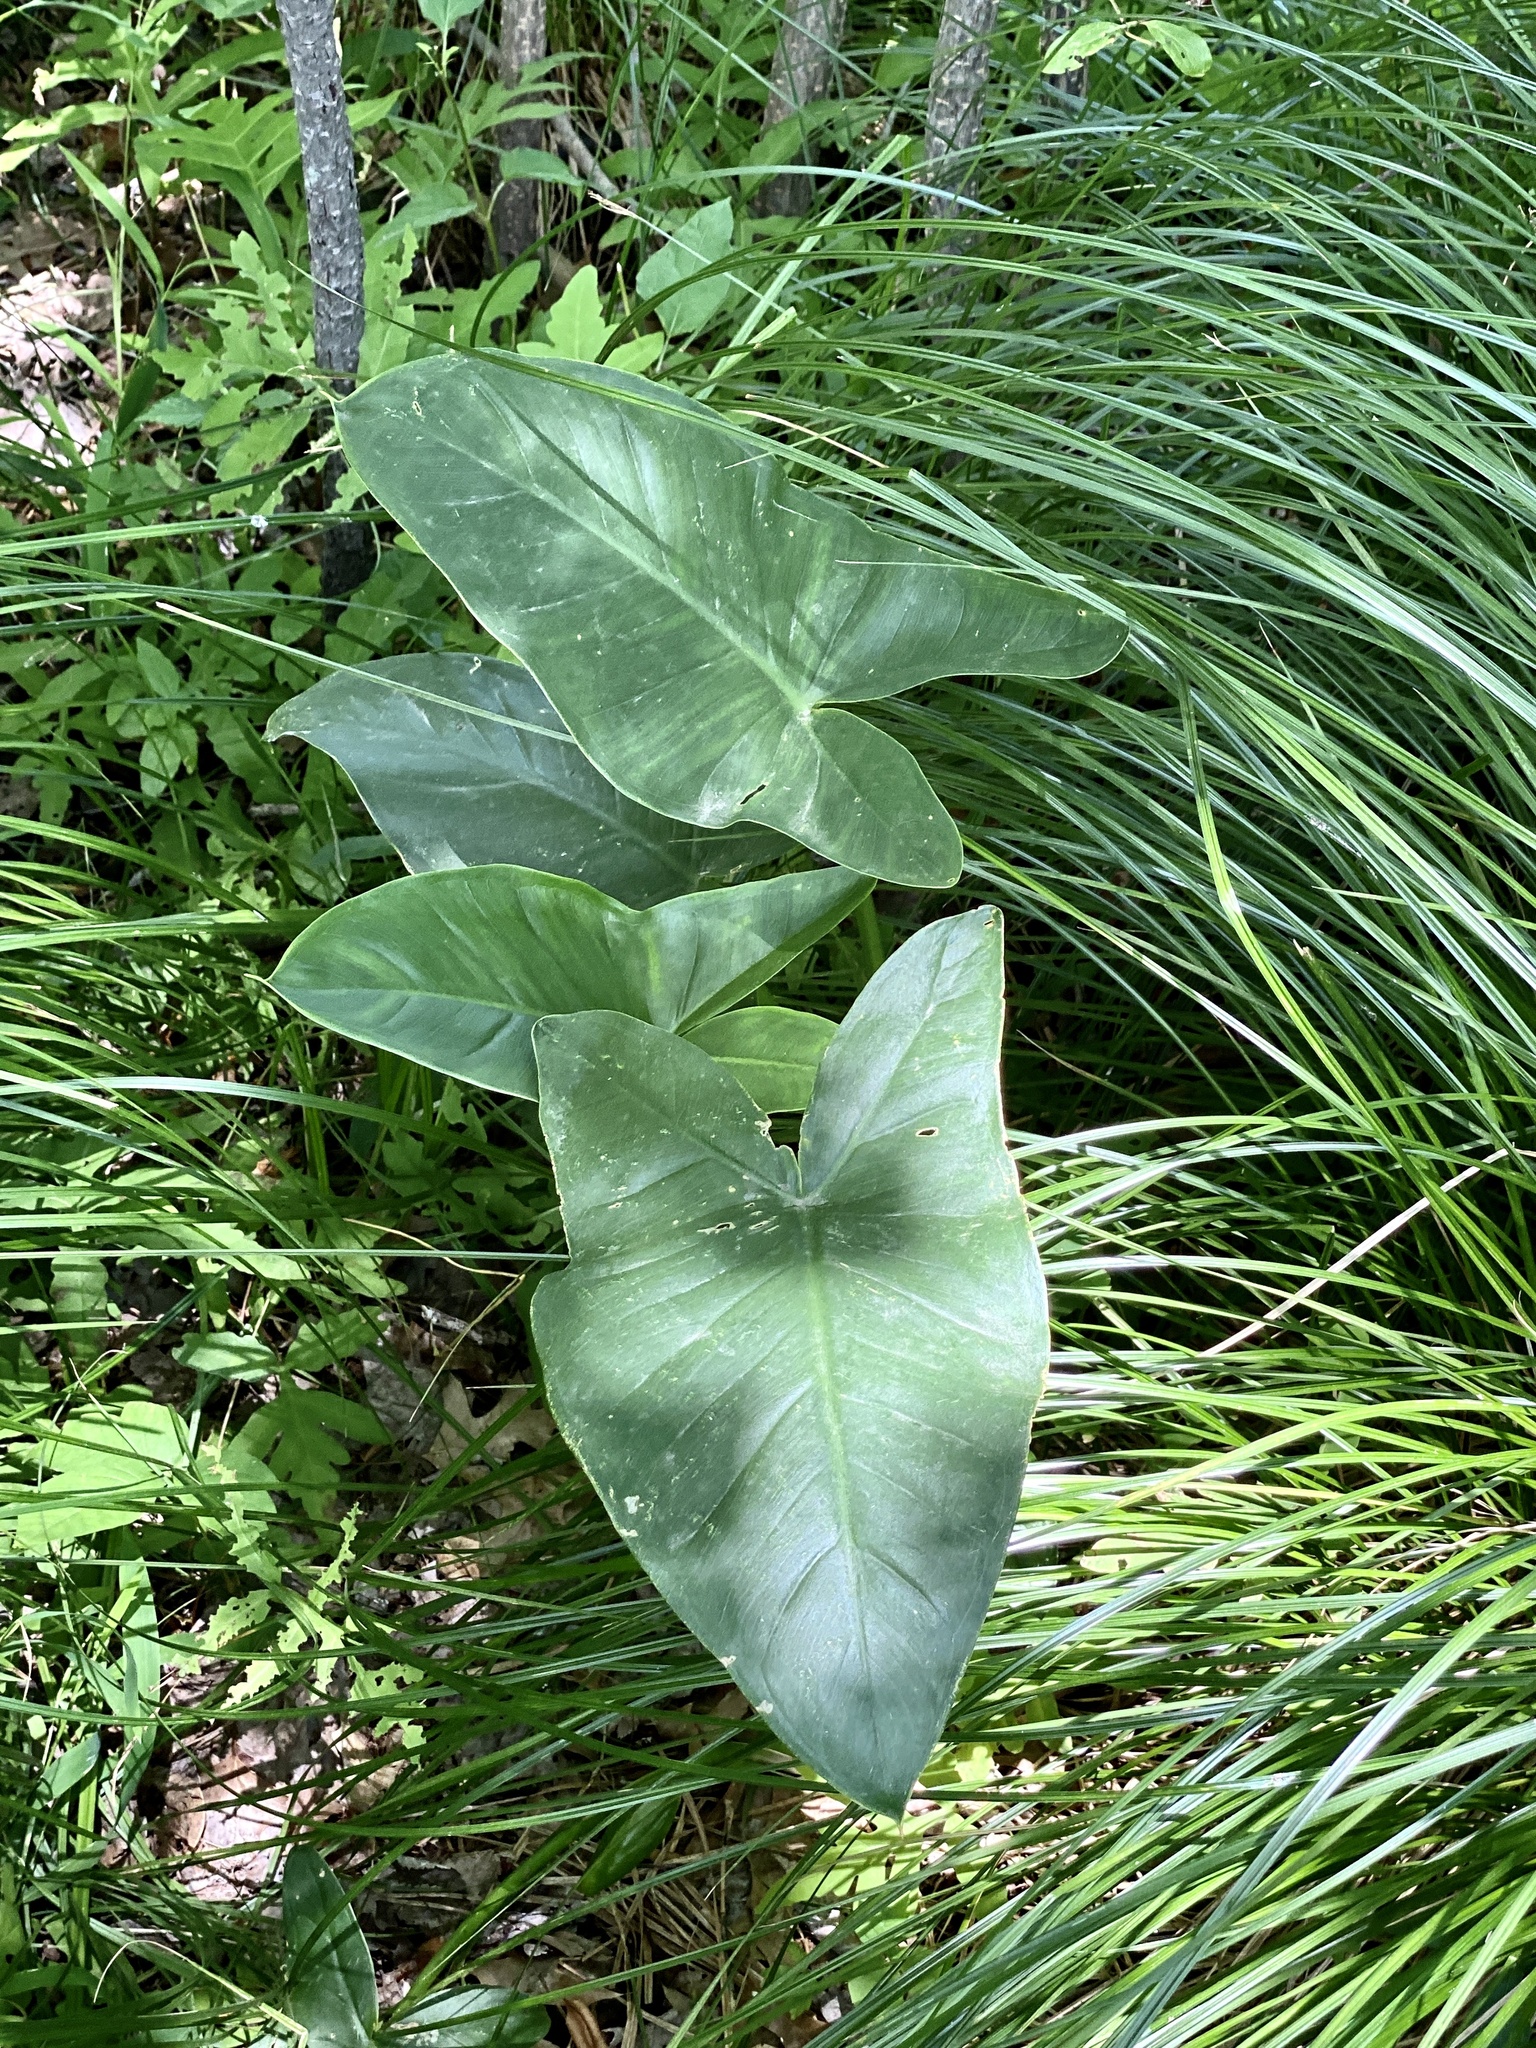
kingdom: Plantae
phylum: Tracheophyta
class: Liliopsida
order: Alismatales
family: Araceae
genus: Peltandra
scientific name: Peltandra virginica
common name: Arrow arum
